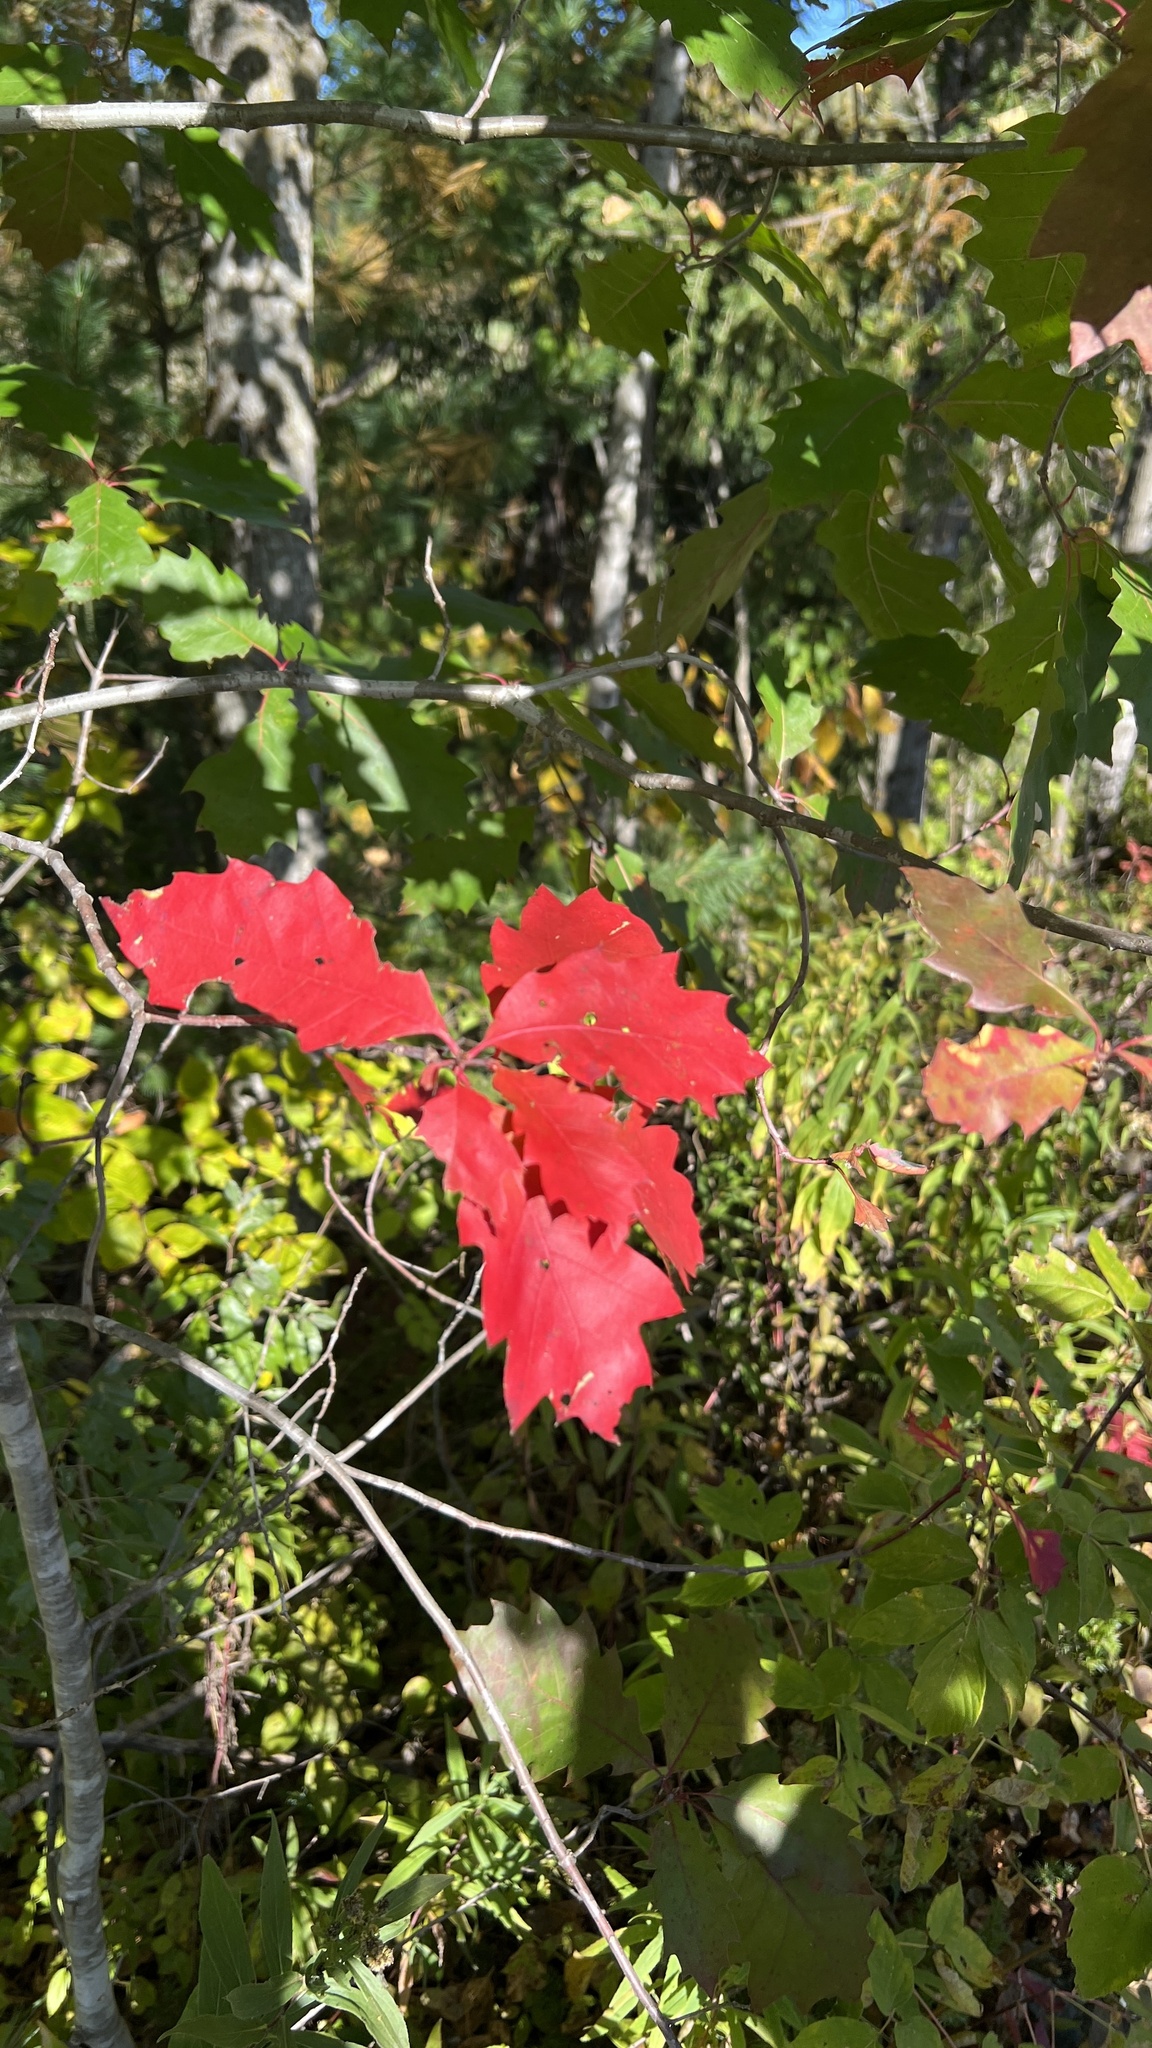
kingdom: Plantae
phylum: Tracheophyta
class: Magnoliopsida
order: Fagales
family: Fagaceae
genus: Quercus
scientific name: Quercus rubra
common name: Red oak
